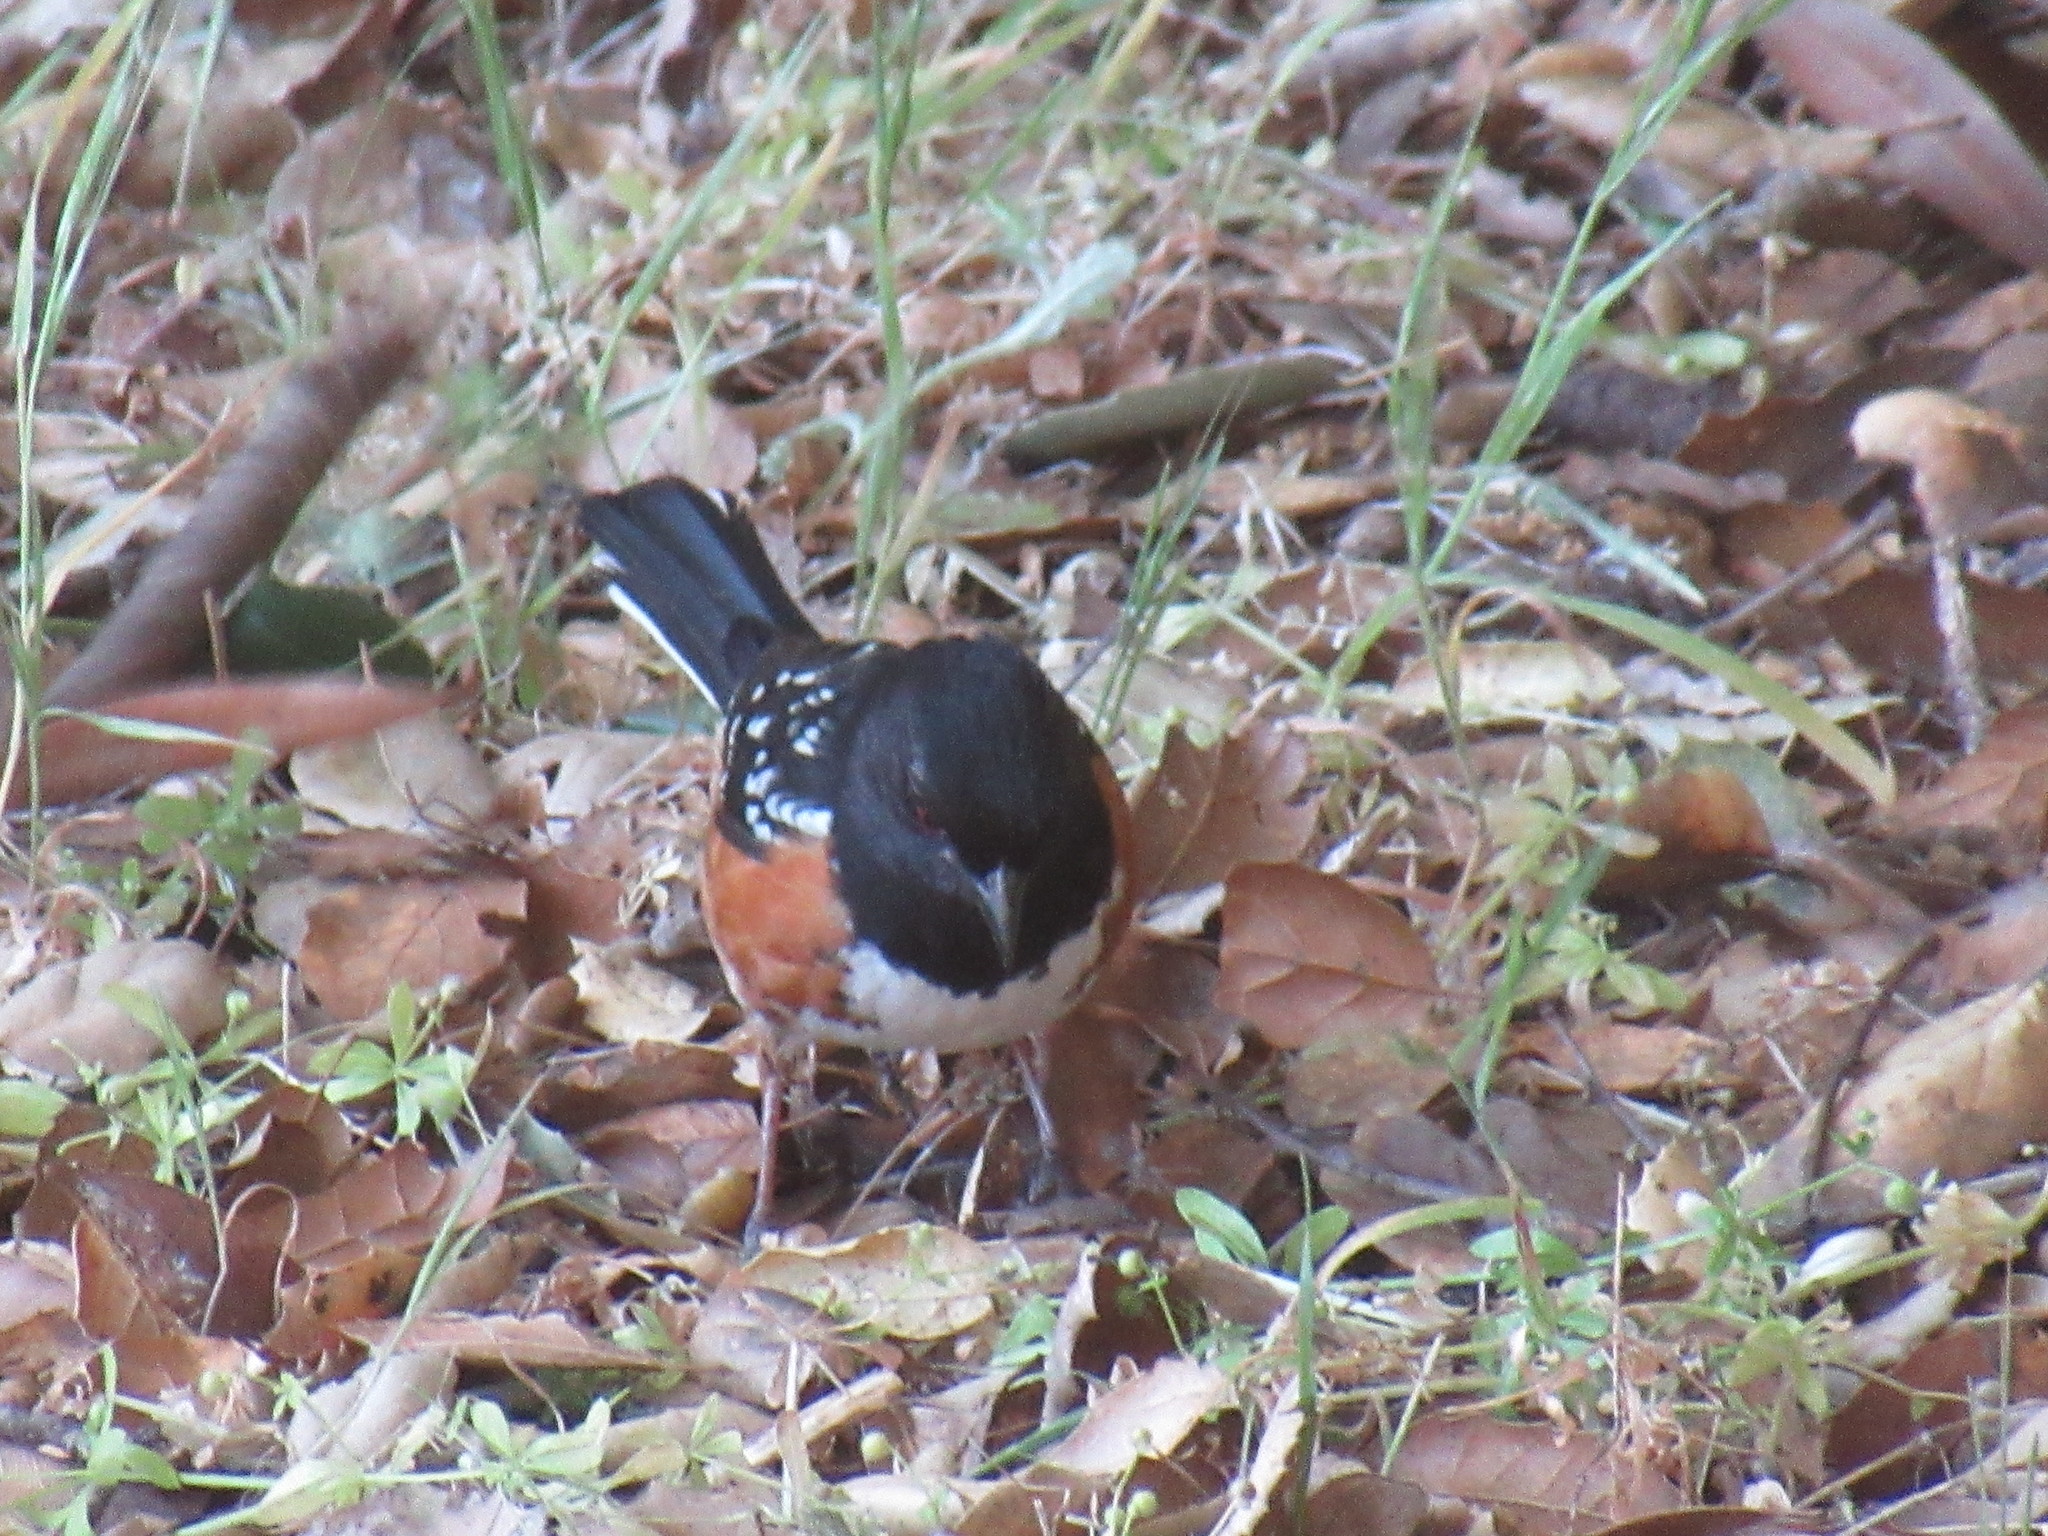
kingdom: Animalia
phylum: Chordata
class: Aves
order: Passeriformes
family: Passerellidae
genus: Pipilo
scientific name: Pipilo maculatus
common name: Spotted towhee
